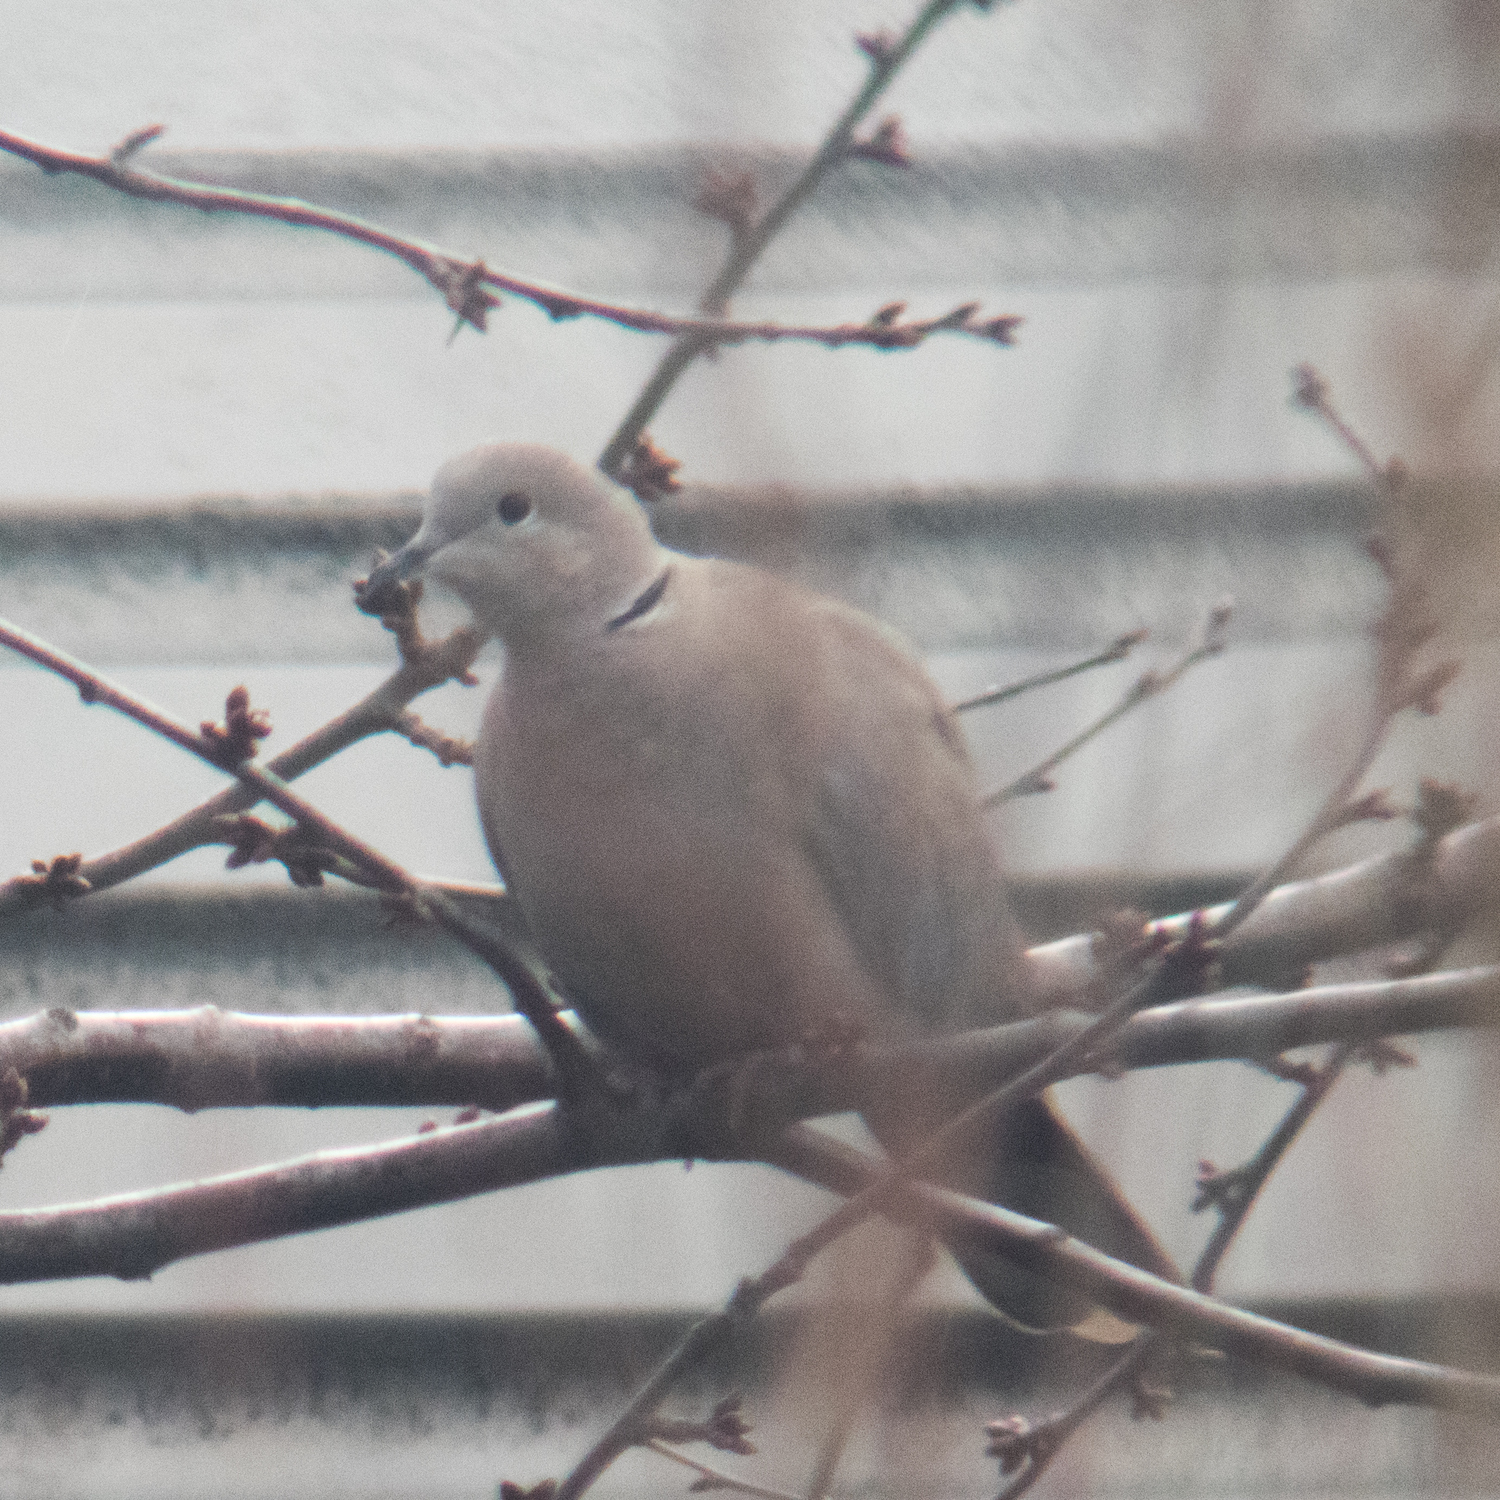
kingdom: Animalia
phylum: Chordata
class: Aves
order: Columbiformes
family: Columbidae
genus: Streptopelia
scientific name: Streptopelia decaocto
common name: Eurasian collared dove
